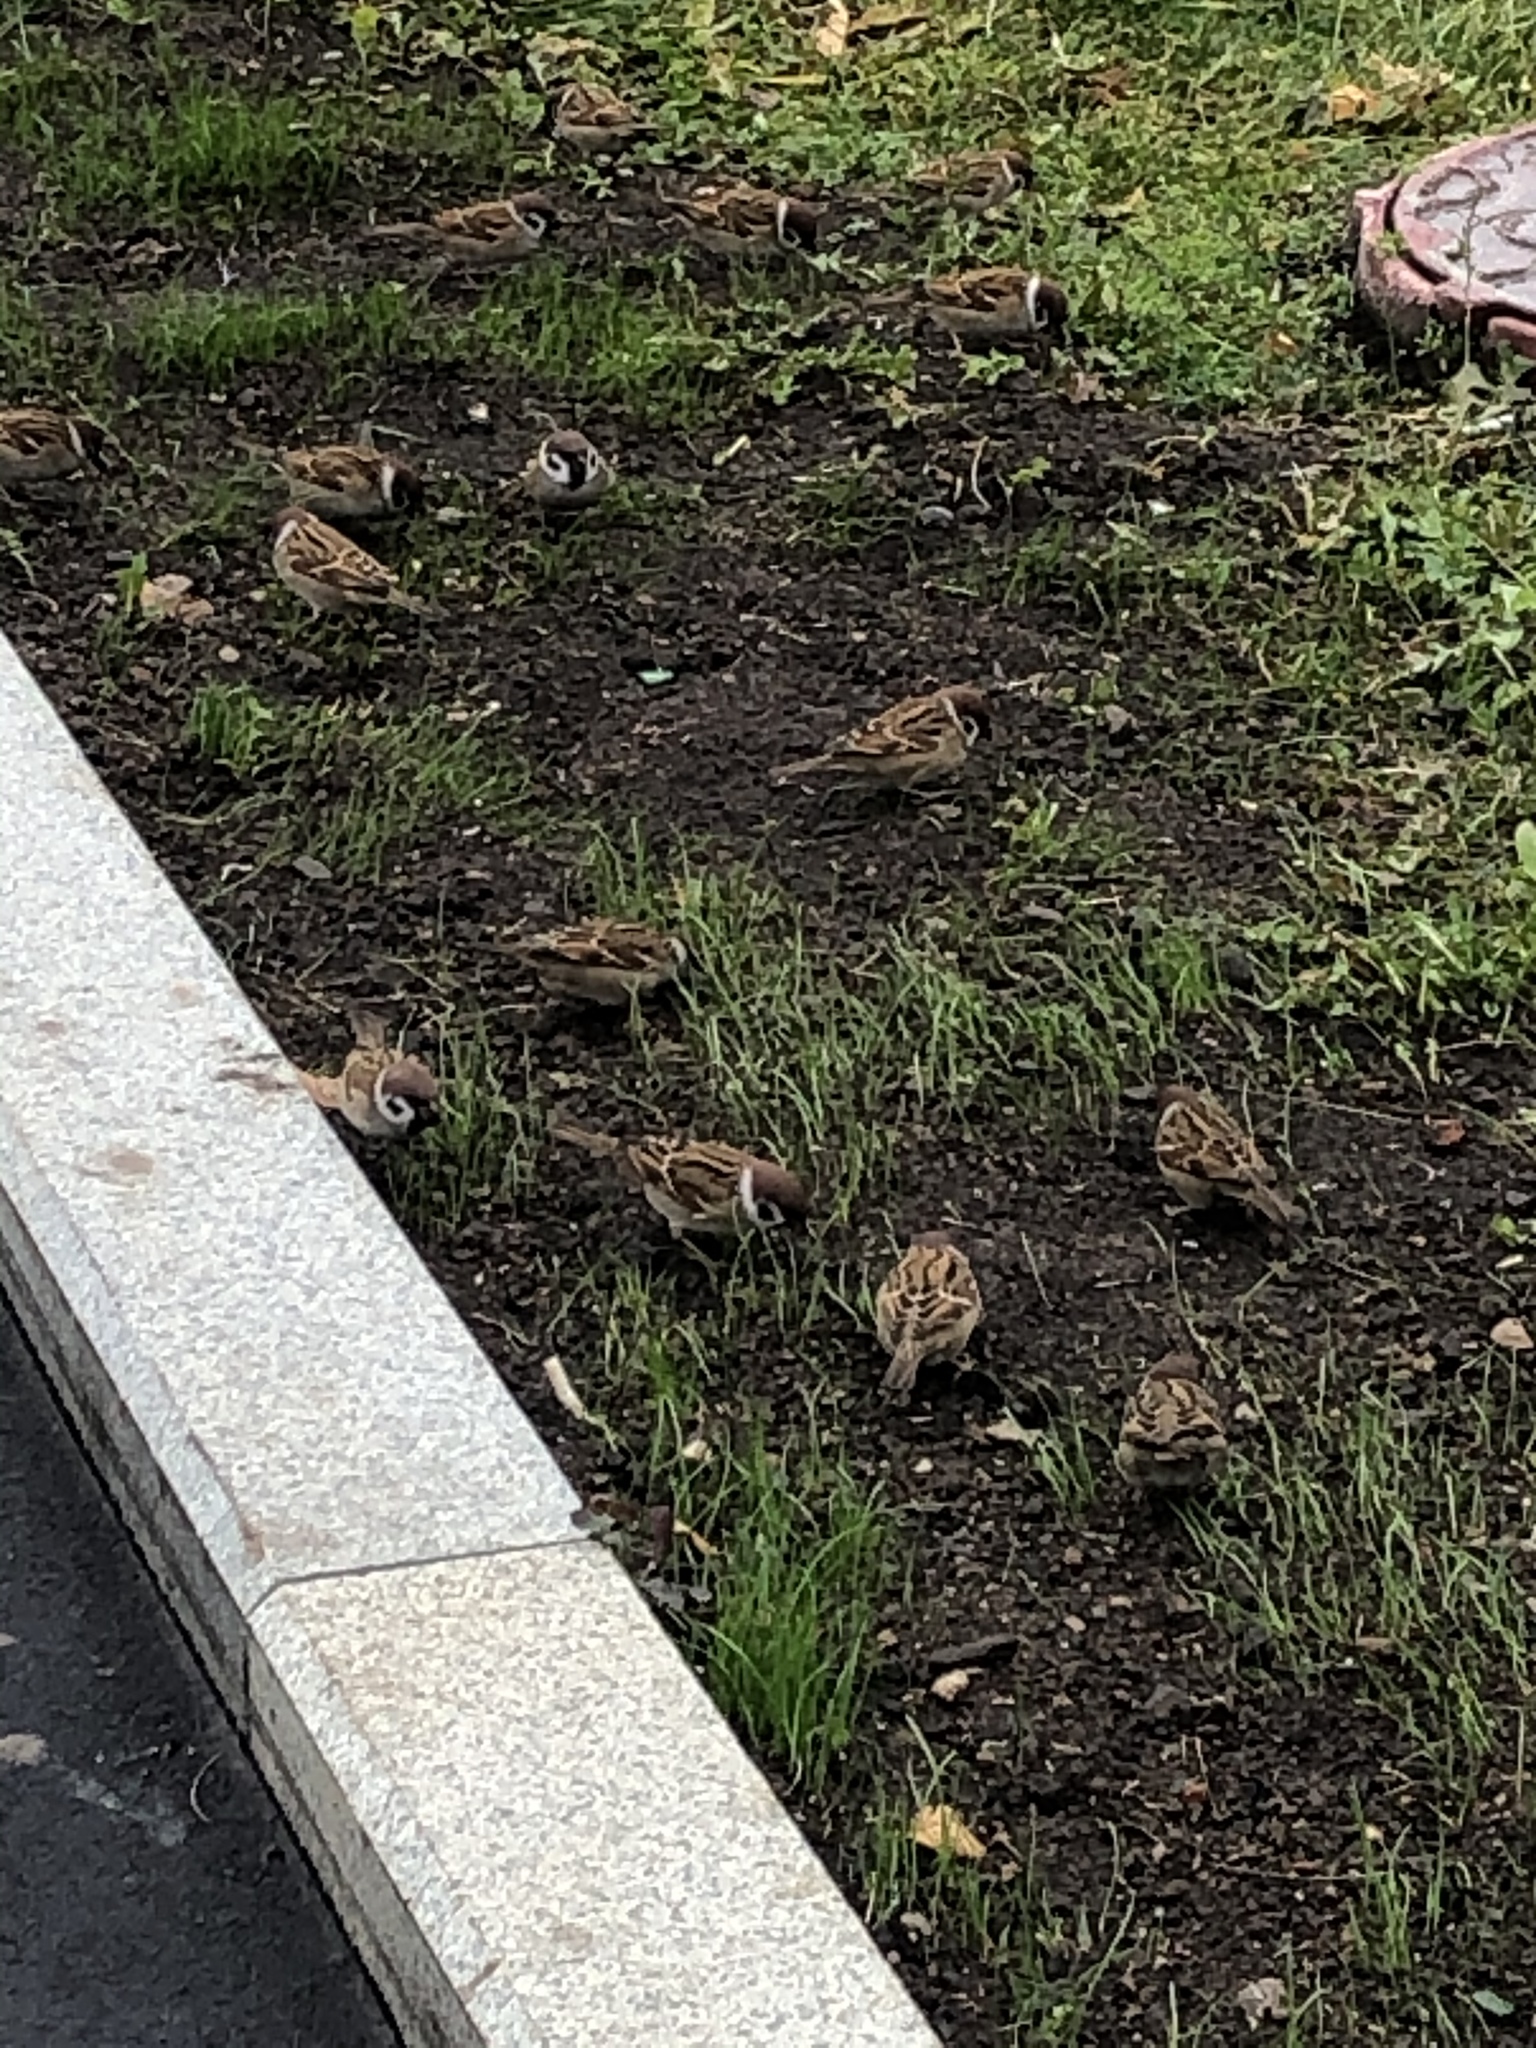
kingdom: Animalia
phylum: Chordata
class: Aves
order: Passeriformes
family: Passeridae
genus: Passer
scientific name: Passer montanus
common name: Eurasian tree sparrow
